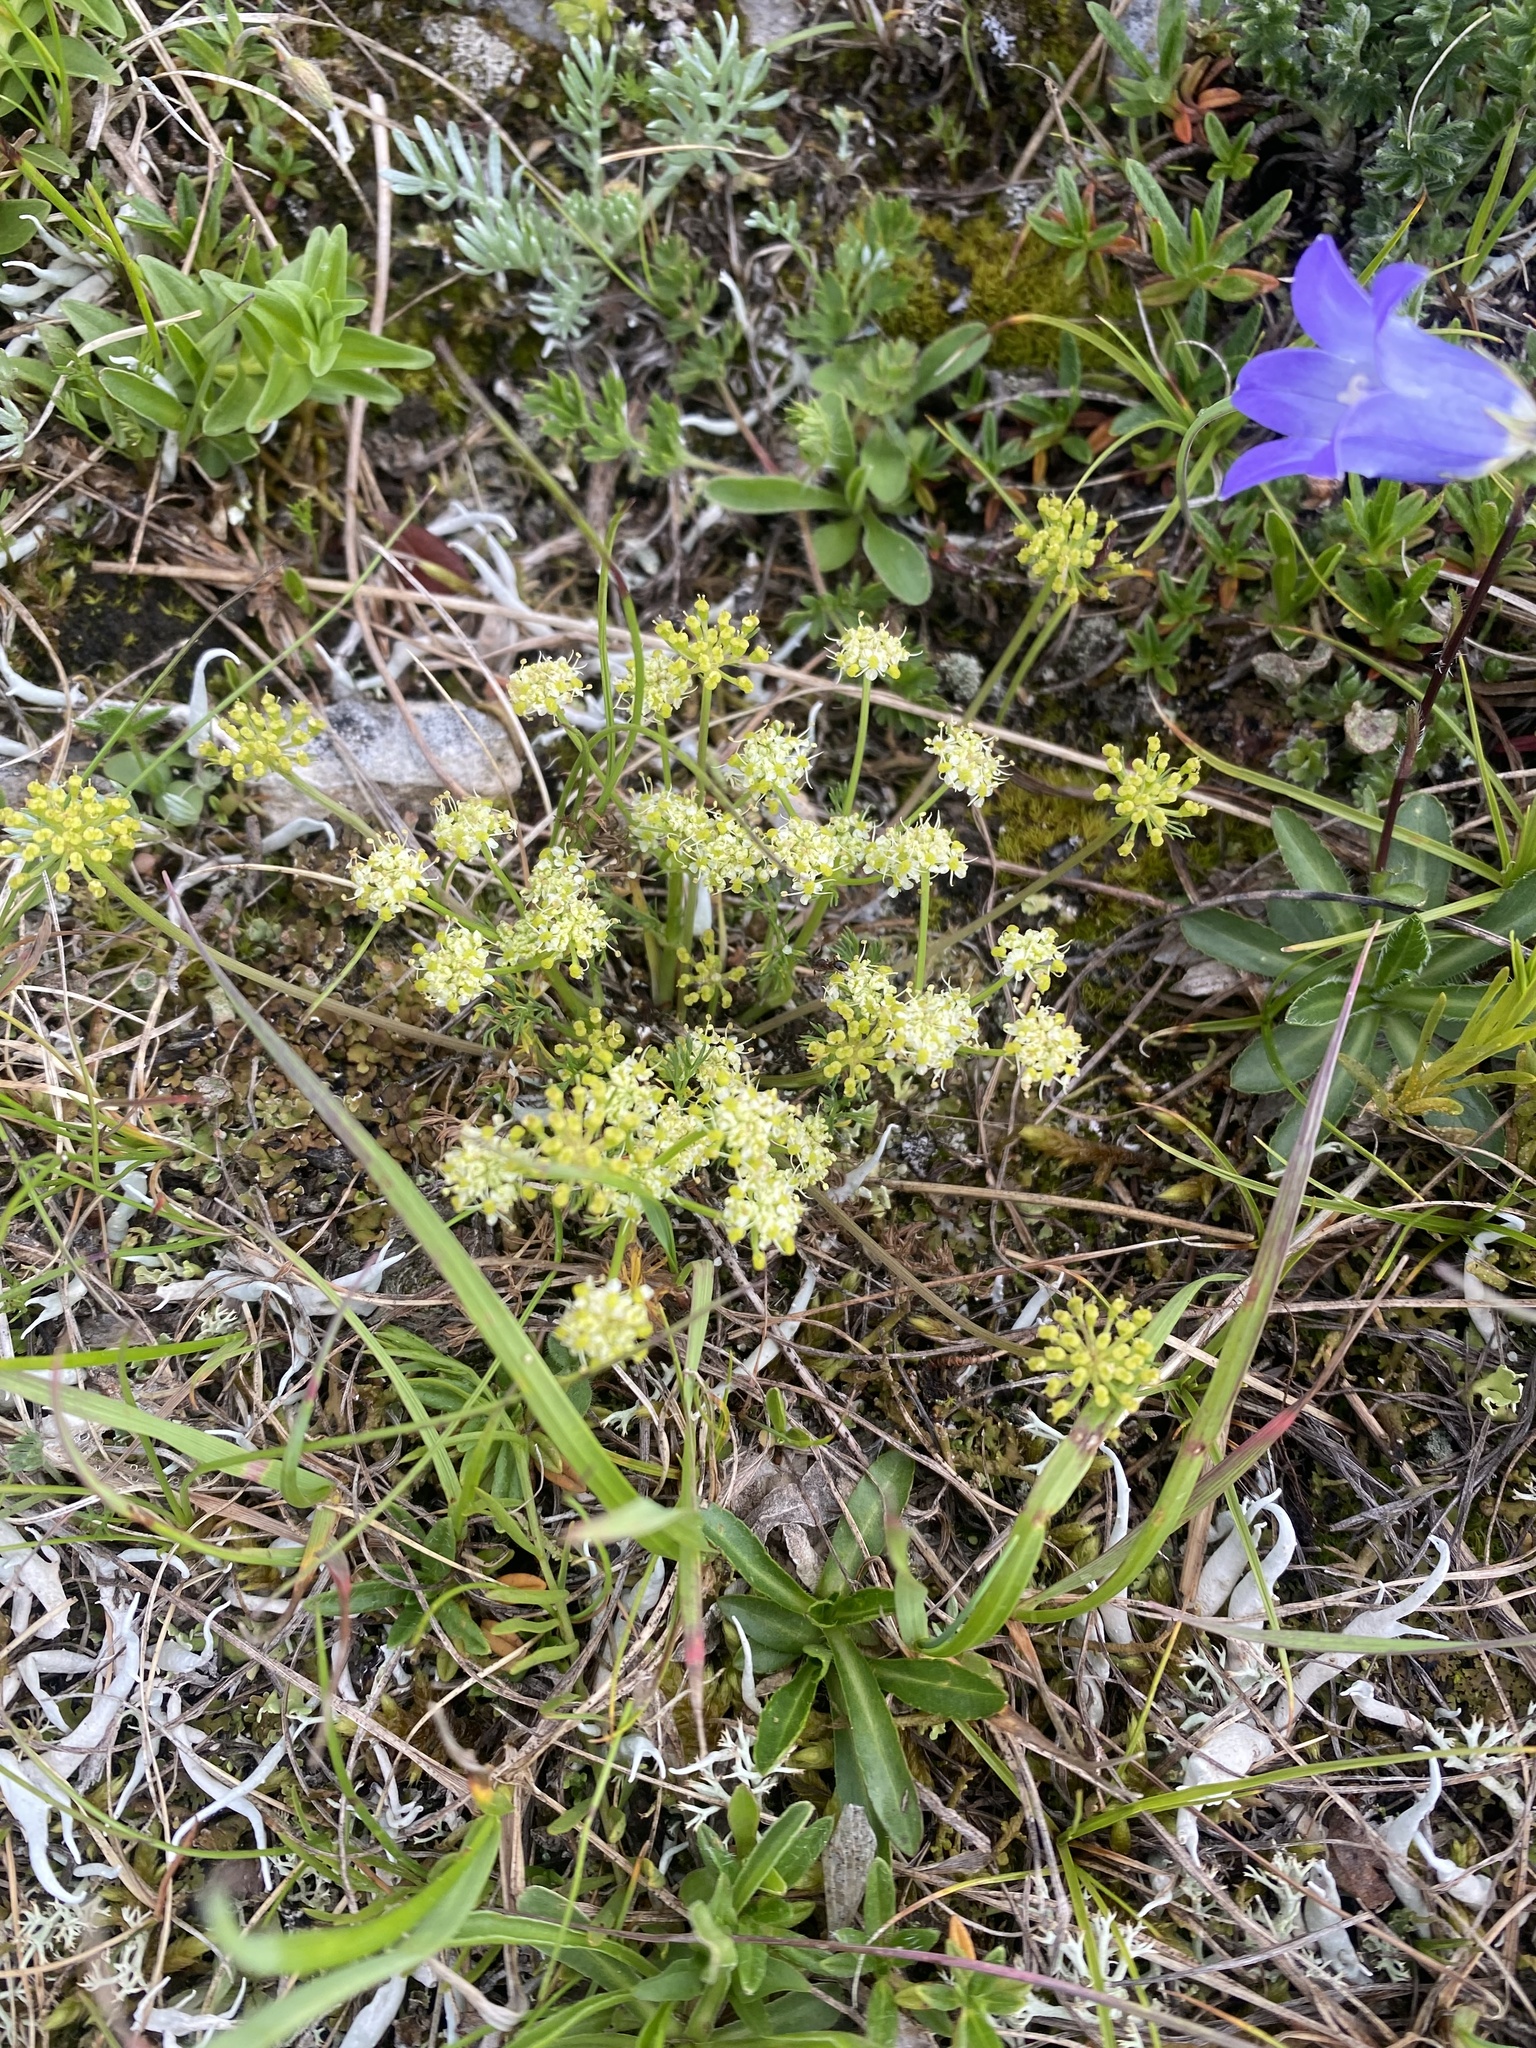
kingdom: Plantae
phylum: Tracheophyta
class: Magnoliopsida
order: Apiales
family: Apiaceae
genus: Chamaesciadium
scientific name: Chamaesciadium acaule
